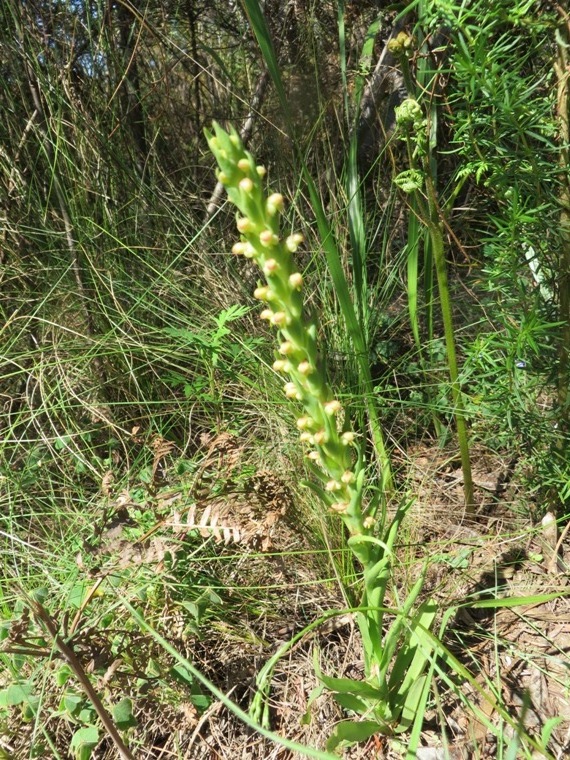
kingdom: Plantae
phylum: Tracheophyta
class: Liliopsida
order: Asparagales
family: Orchidaceae
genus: Disa
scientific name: Disa bracteata
